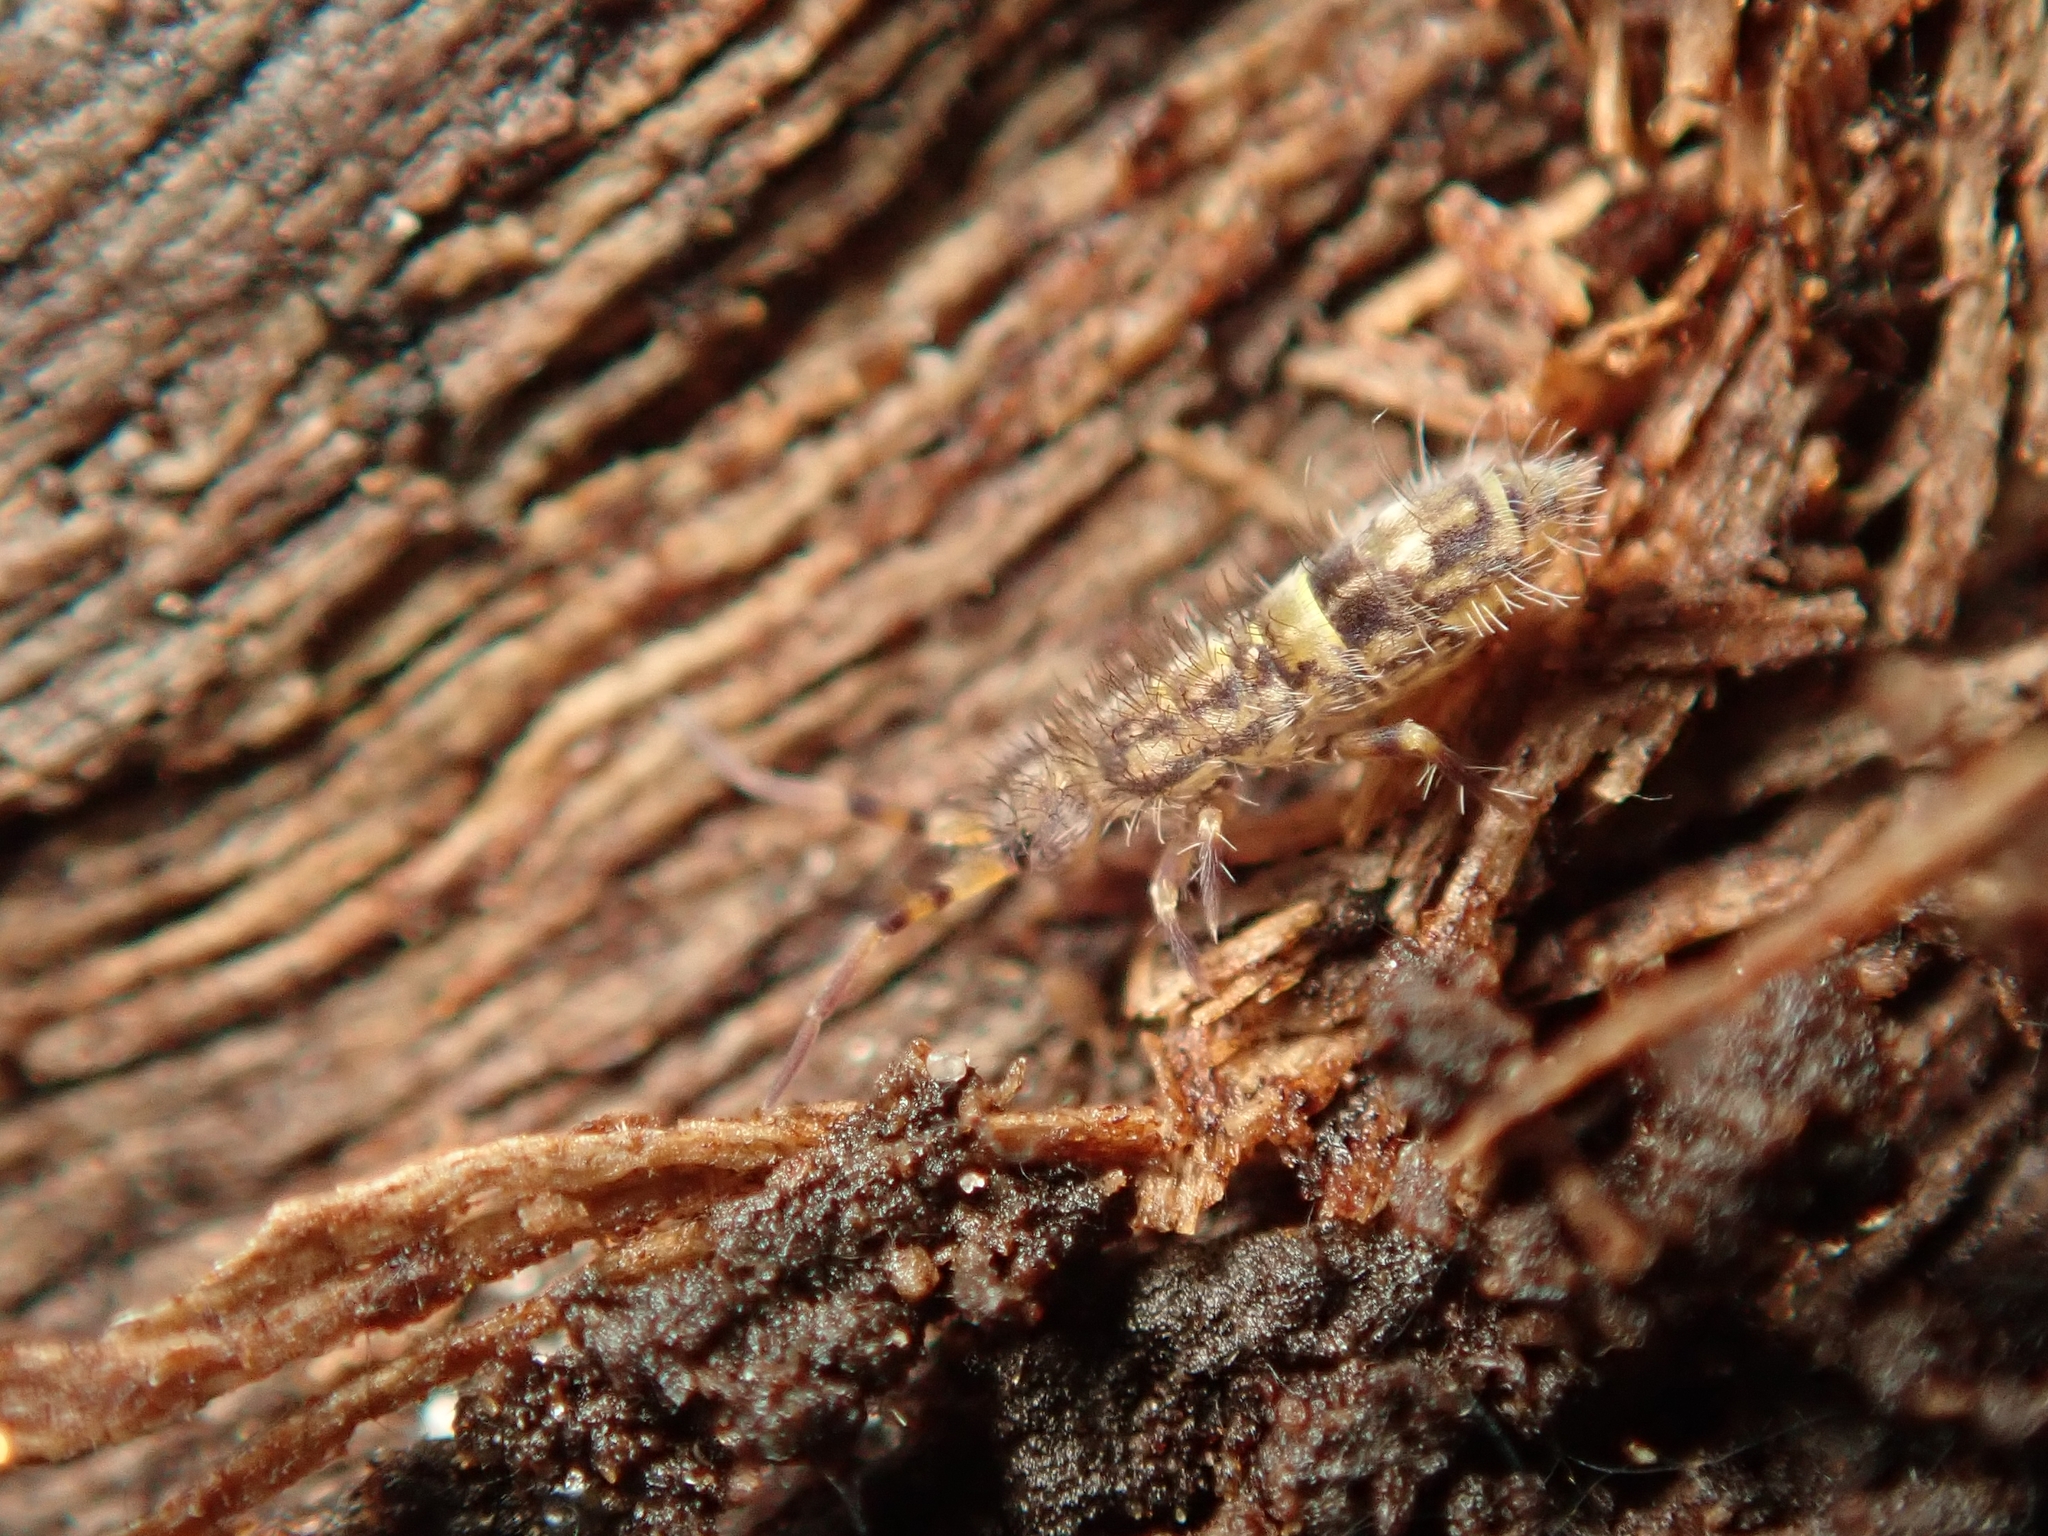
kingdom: Animalia
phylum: Arthropoda
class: Collembola
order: Entomobryomorpha
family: Orchesellidae
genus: Orchesella
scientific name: Orchesella cincta
